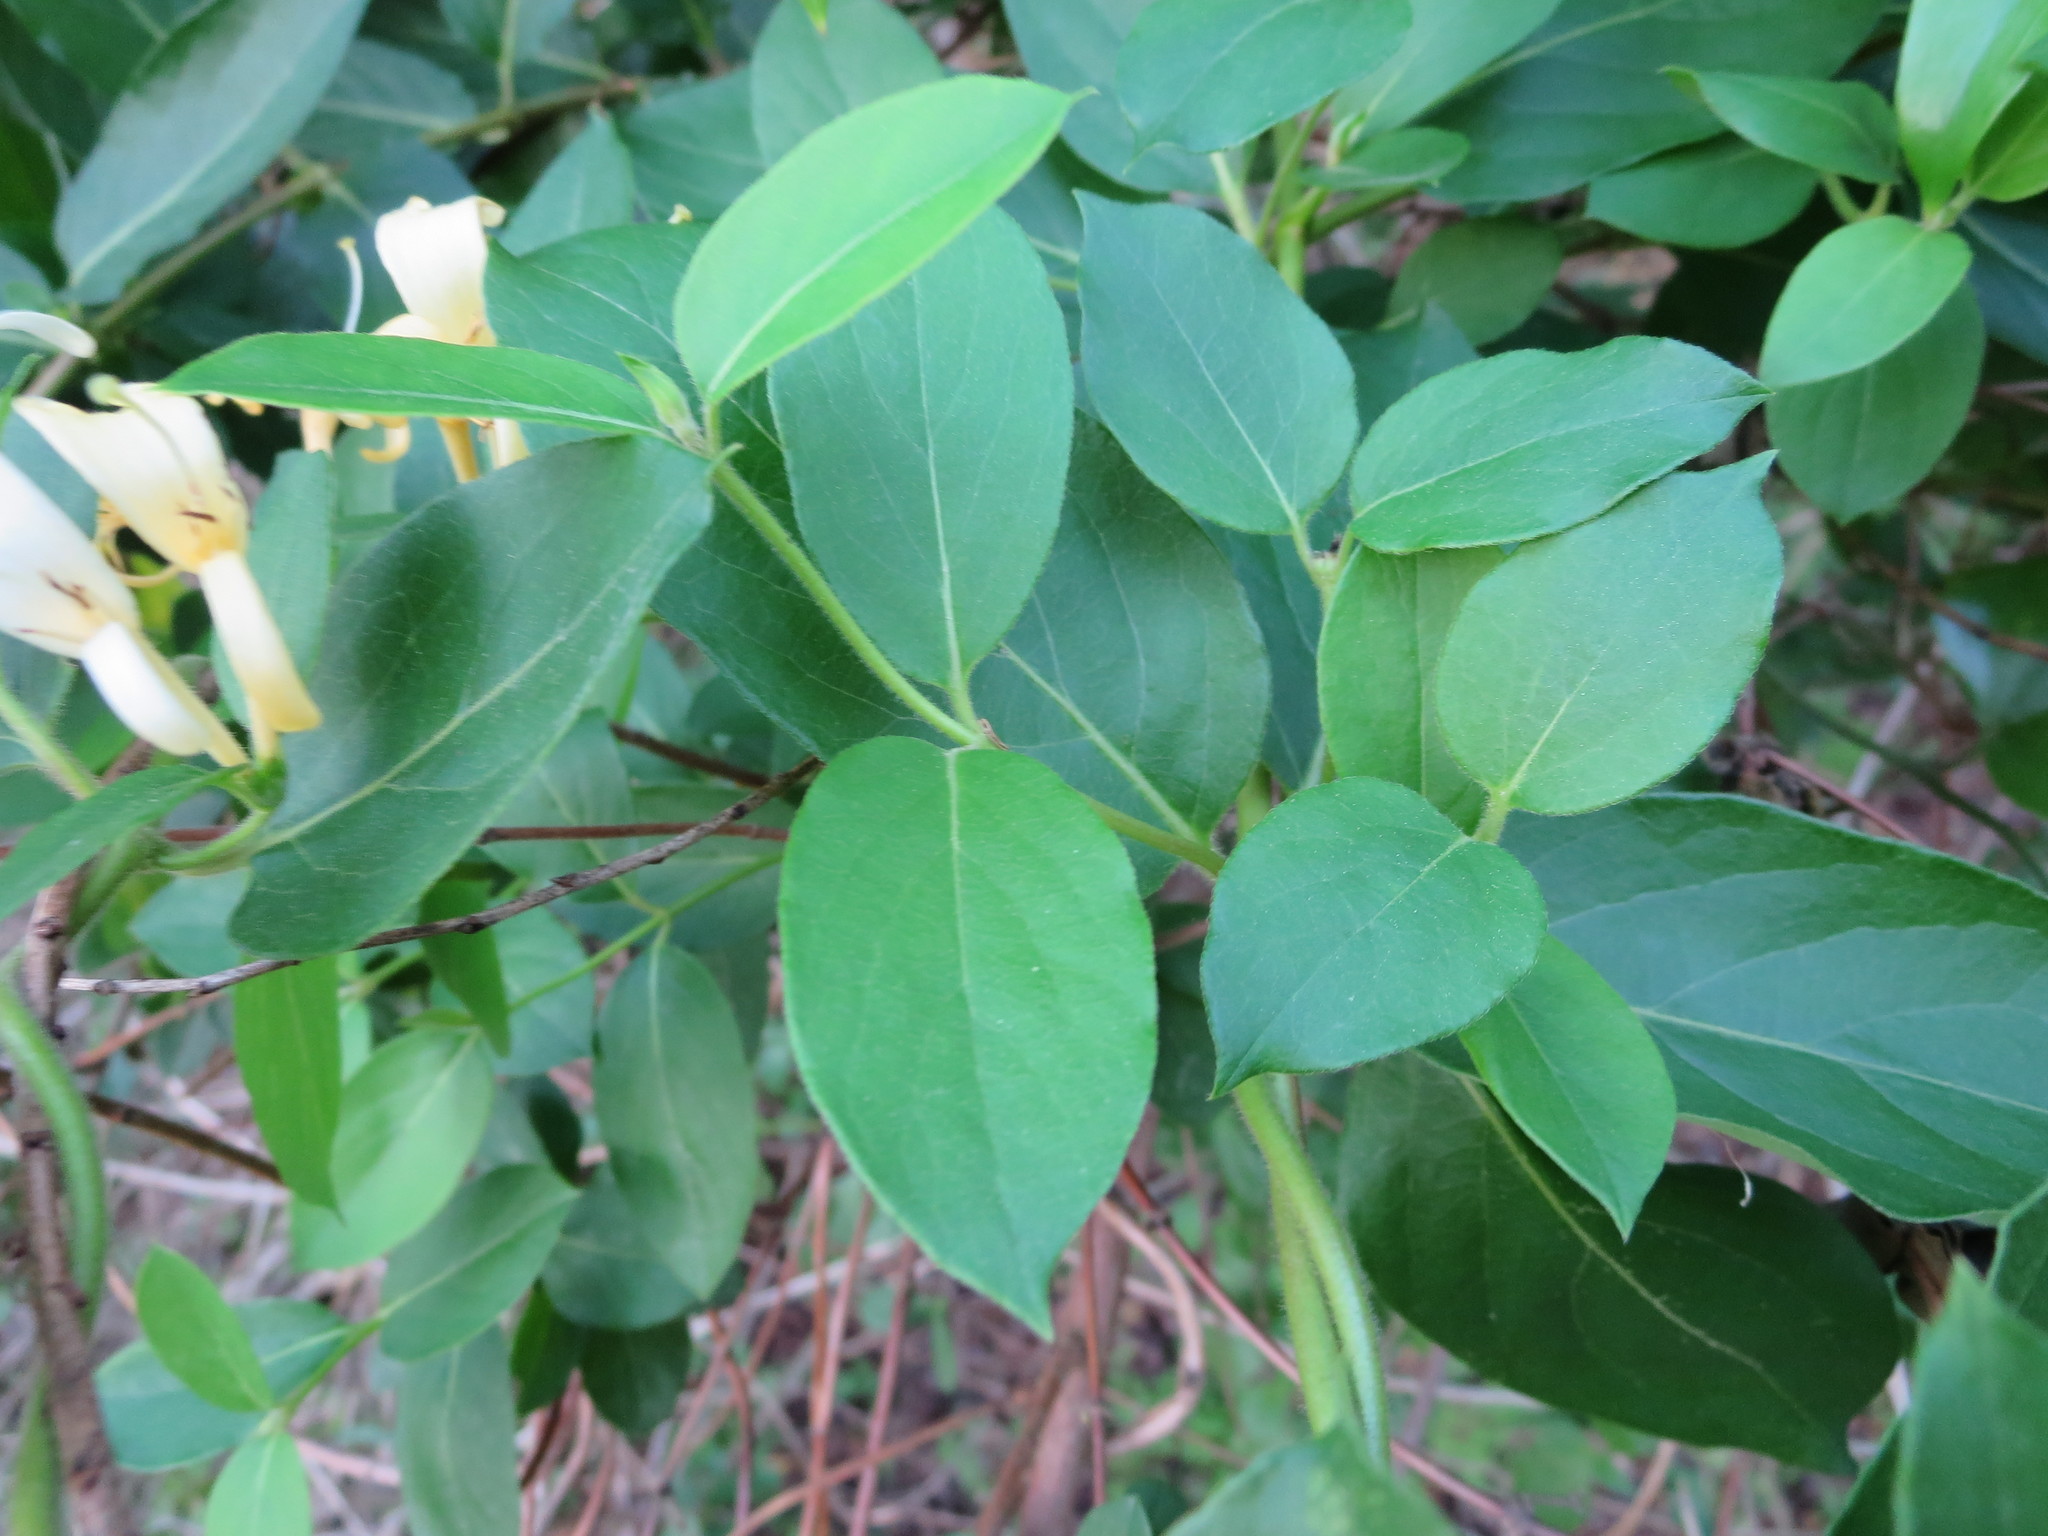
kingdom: Plantae
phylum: Tracheophyta
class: Magnoliopsida
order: Dipsacales
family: Caprifoliaceae
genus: Lonicera
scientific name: Lonicera japonica
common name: Japanese honeysuckle
